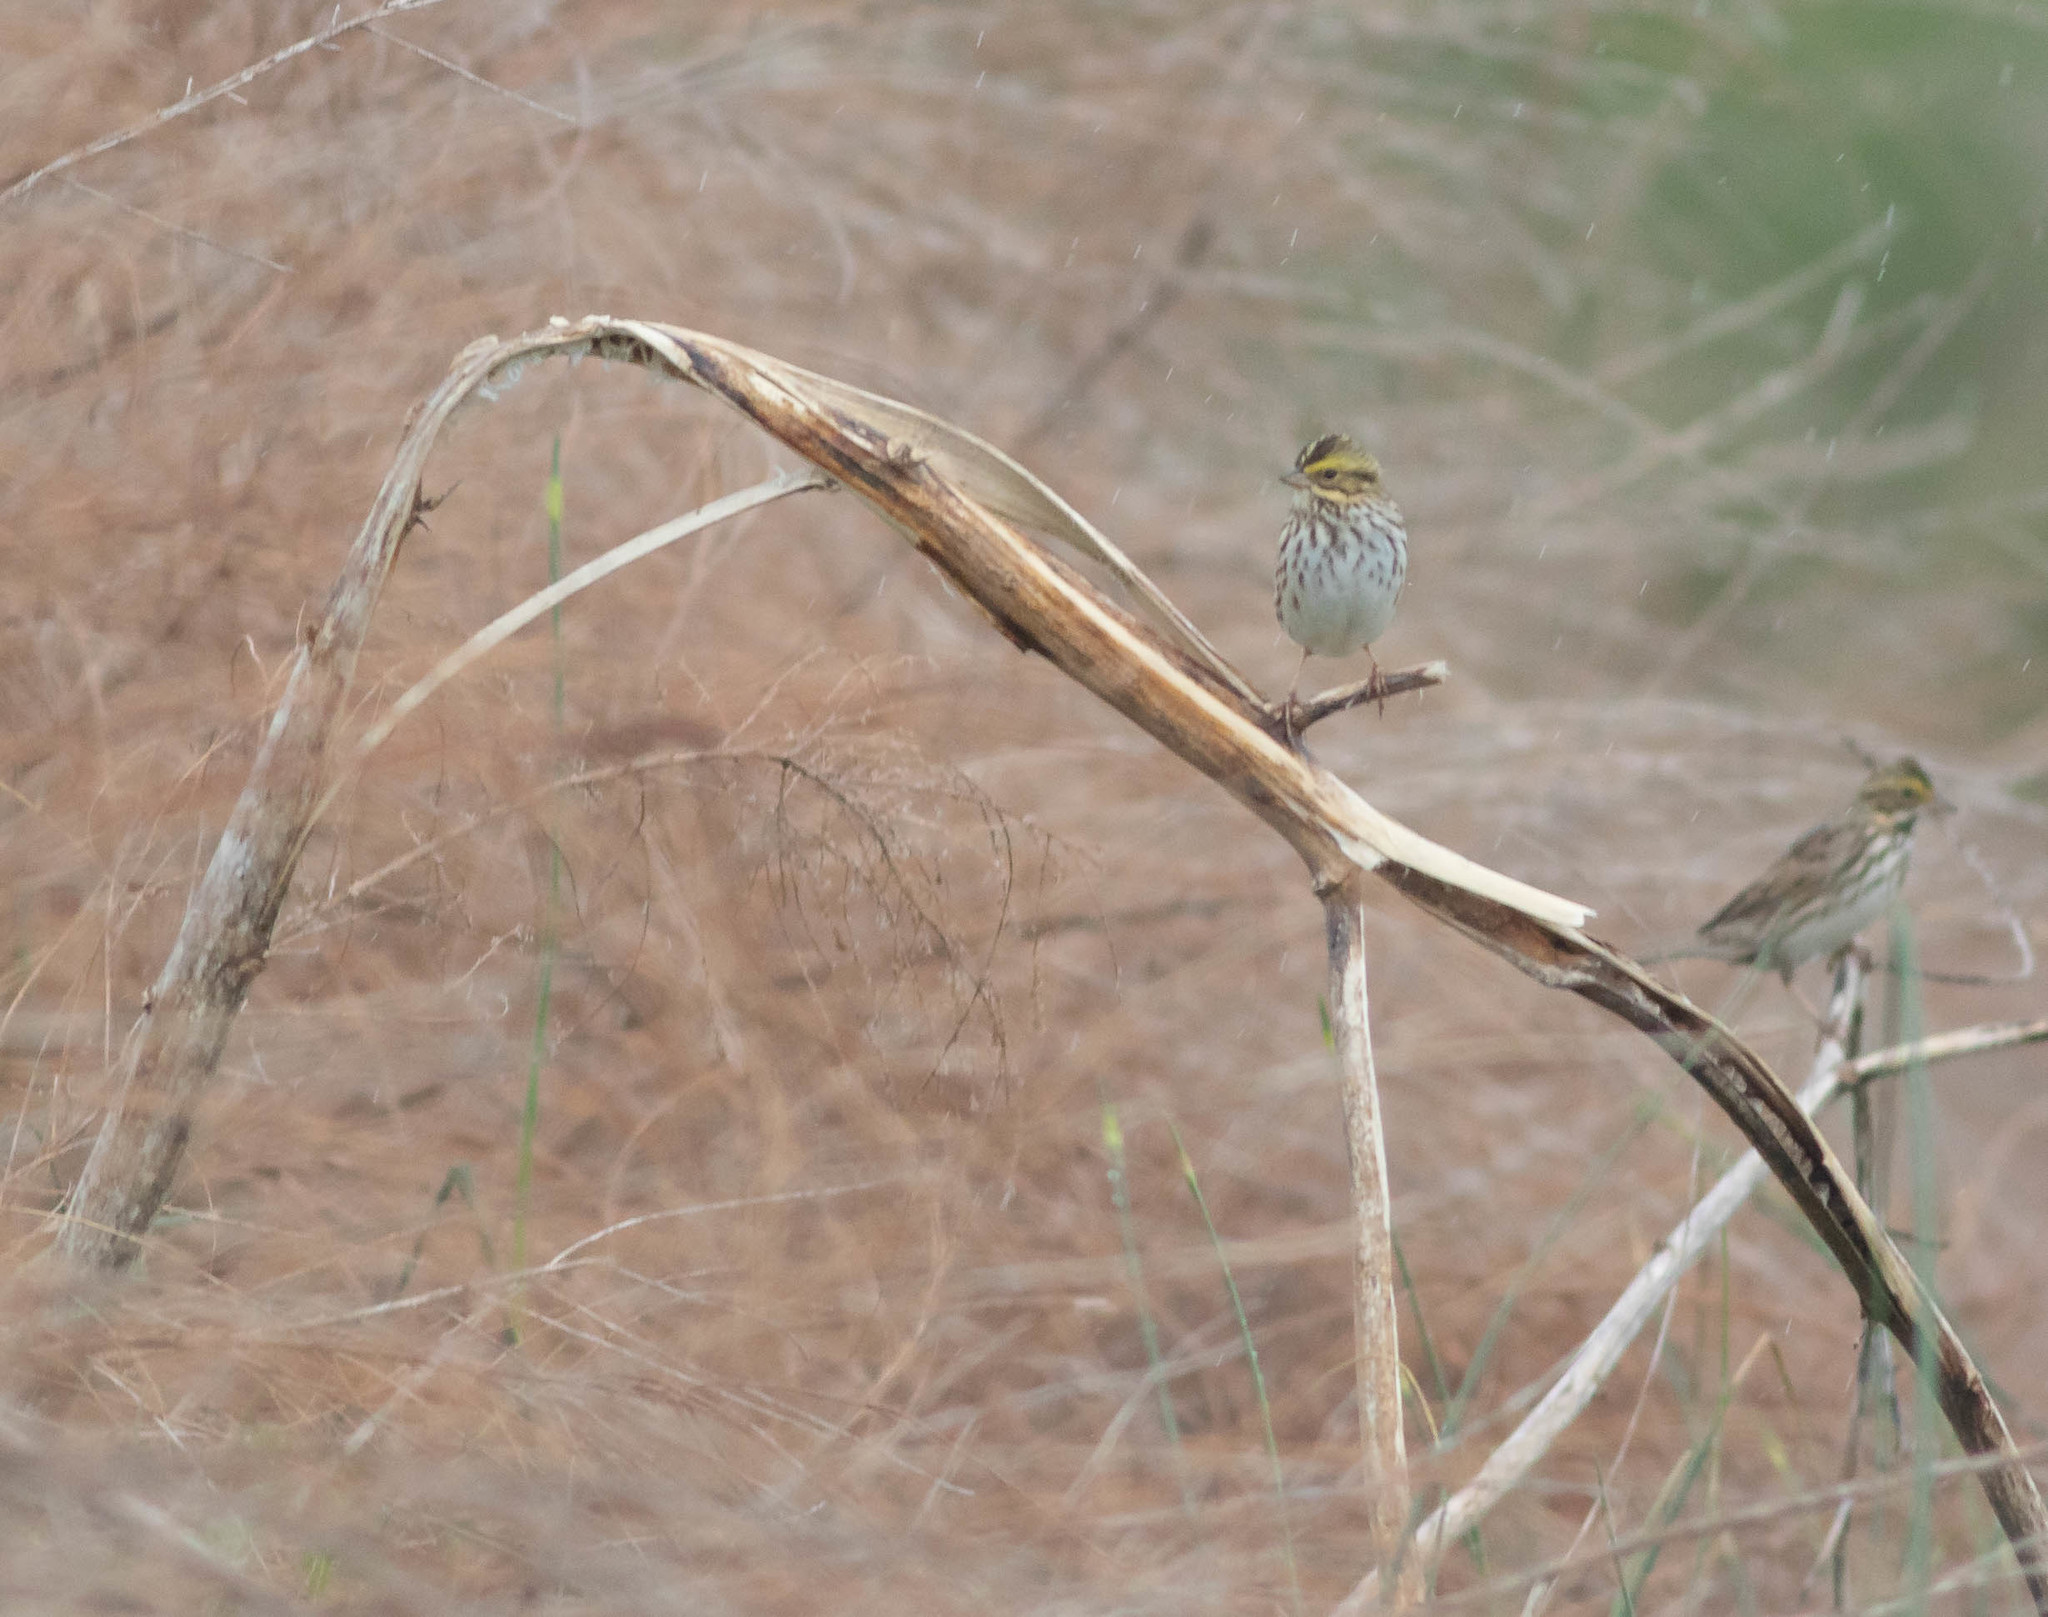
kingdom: Animalia
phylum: Chordata
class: Aves
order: Passeriformes
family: Passerellidae
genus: Passerculus
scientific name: Passerculus sandwichensis
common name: Savannah sparrow
